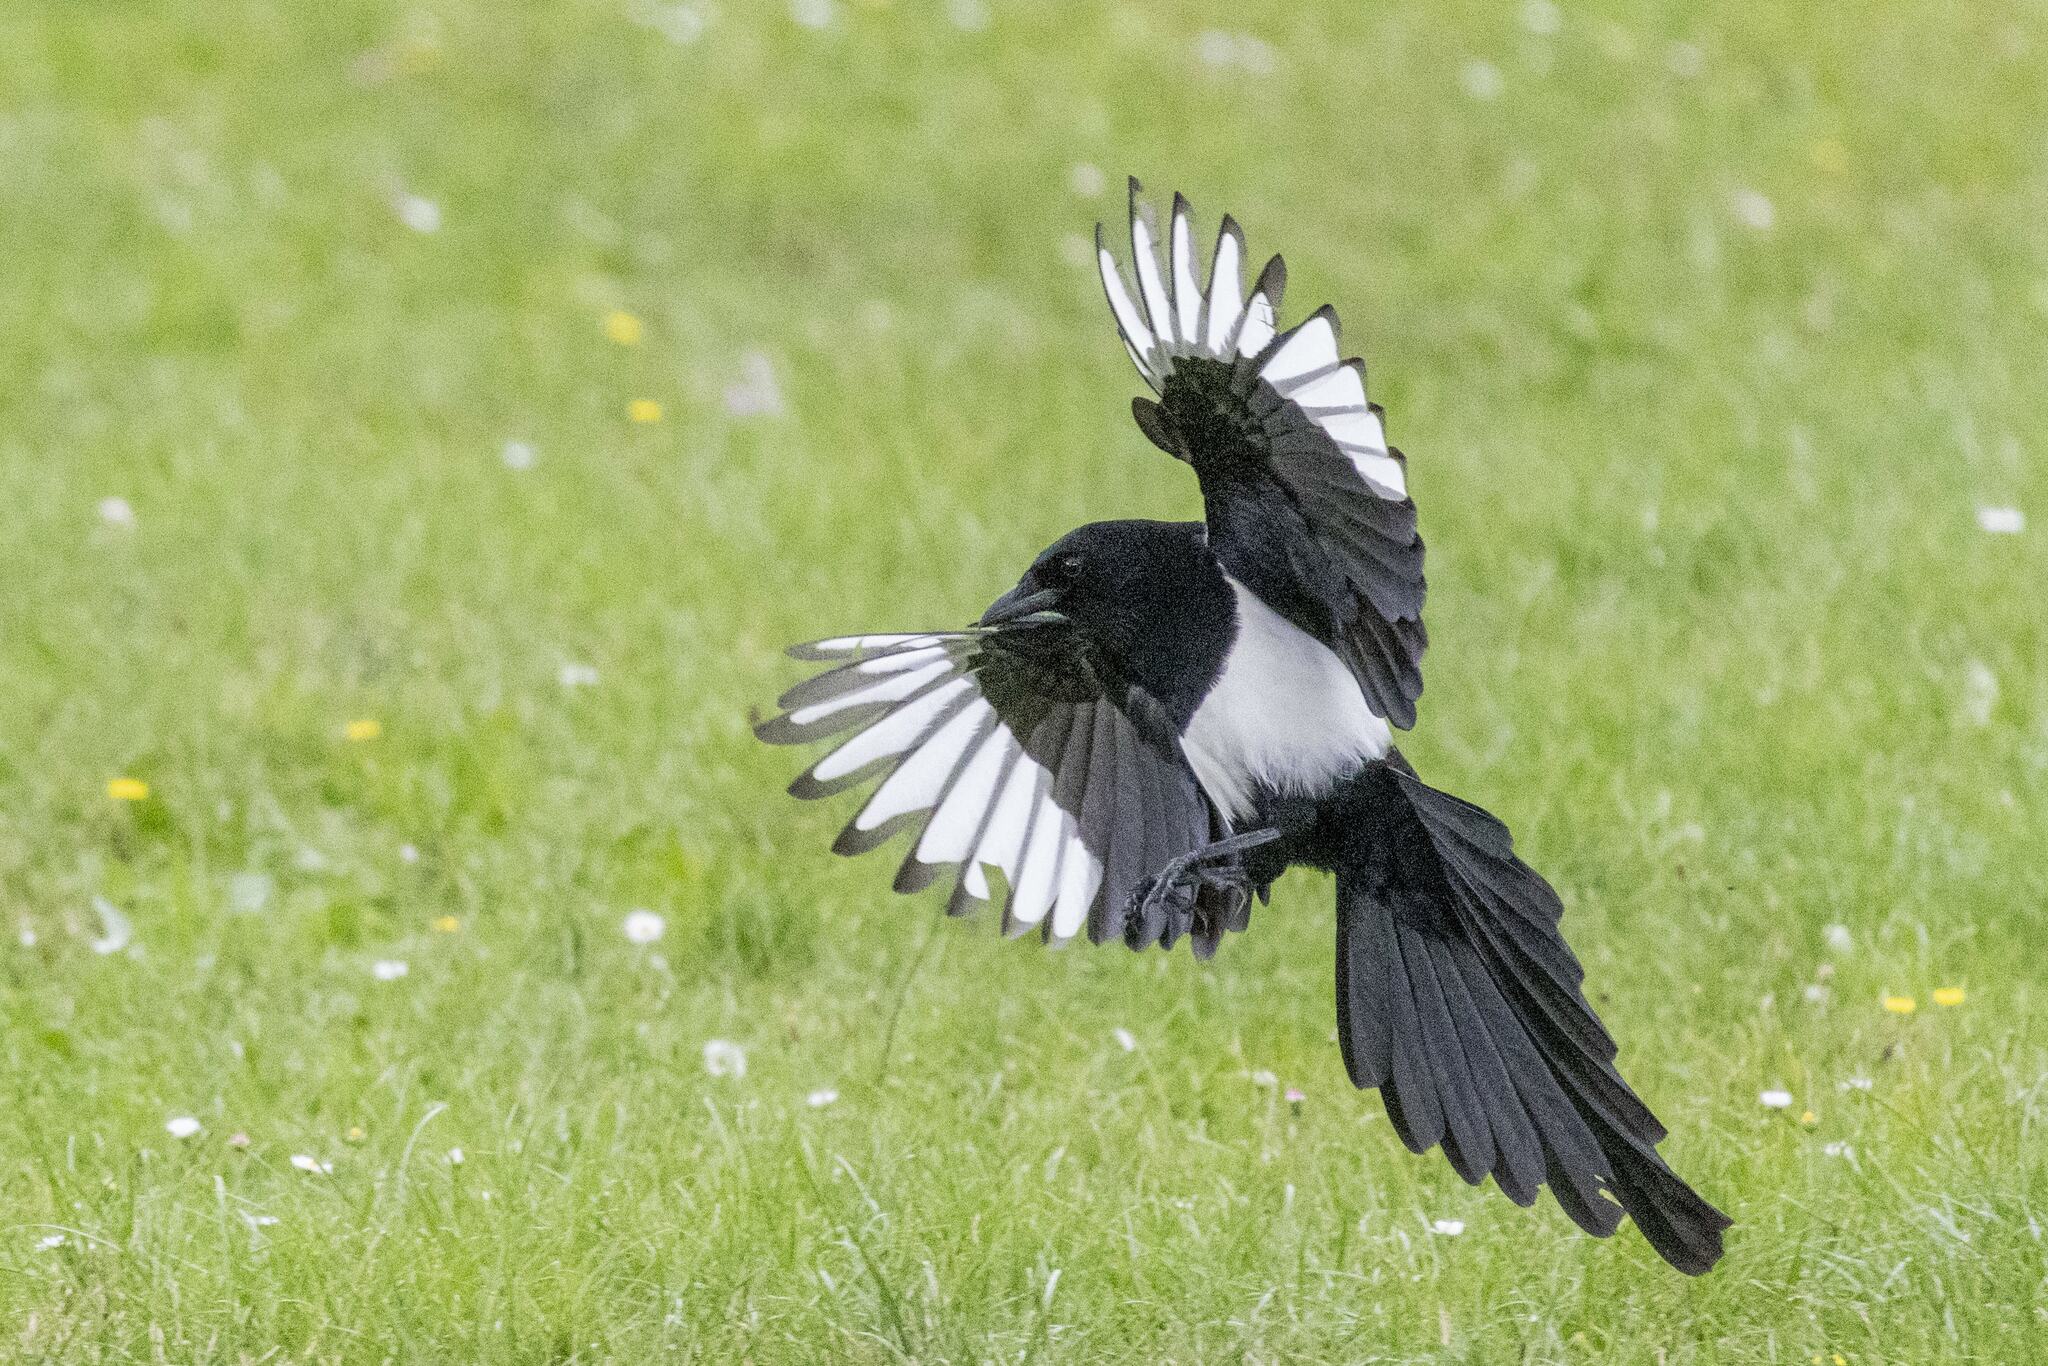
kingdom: Animalia
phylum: Chordata
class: Aves
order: Passeriformes
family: Corvidae
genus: Pica
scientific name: Pica pica
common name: Eurasian magpie
